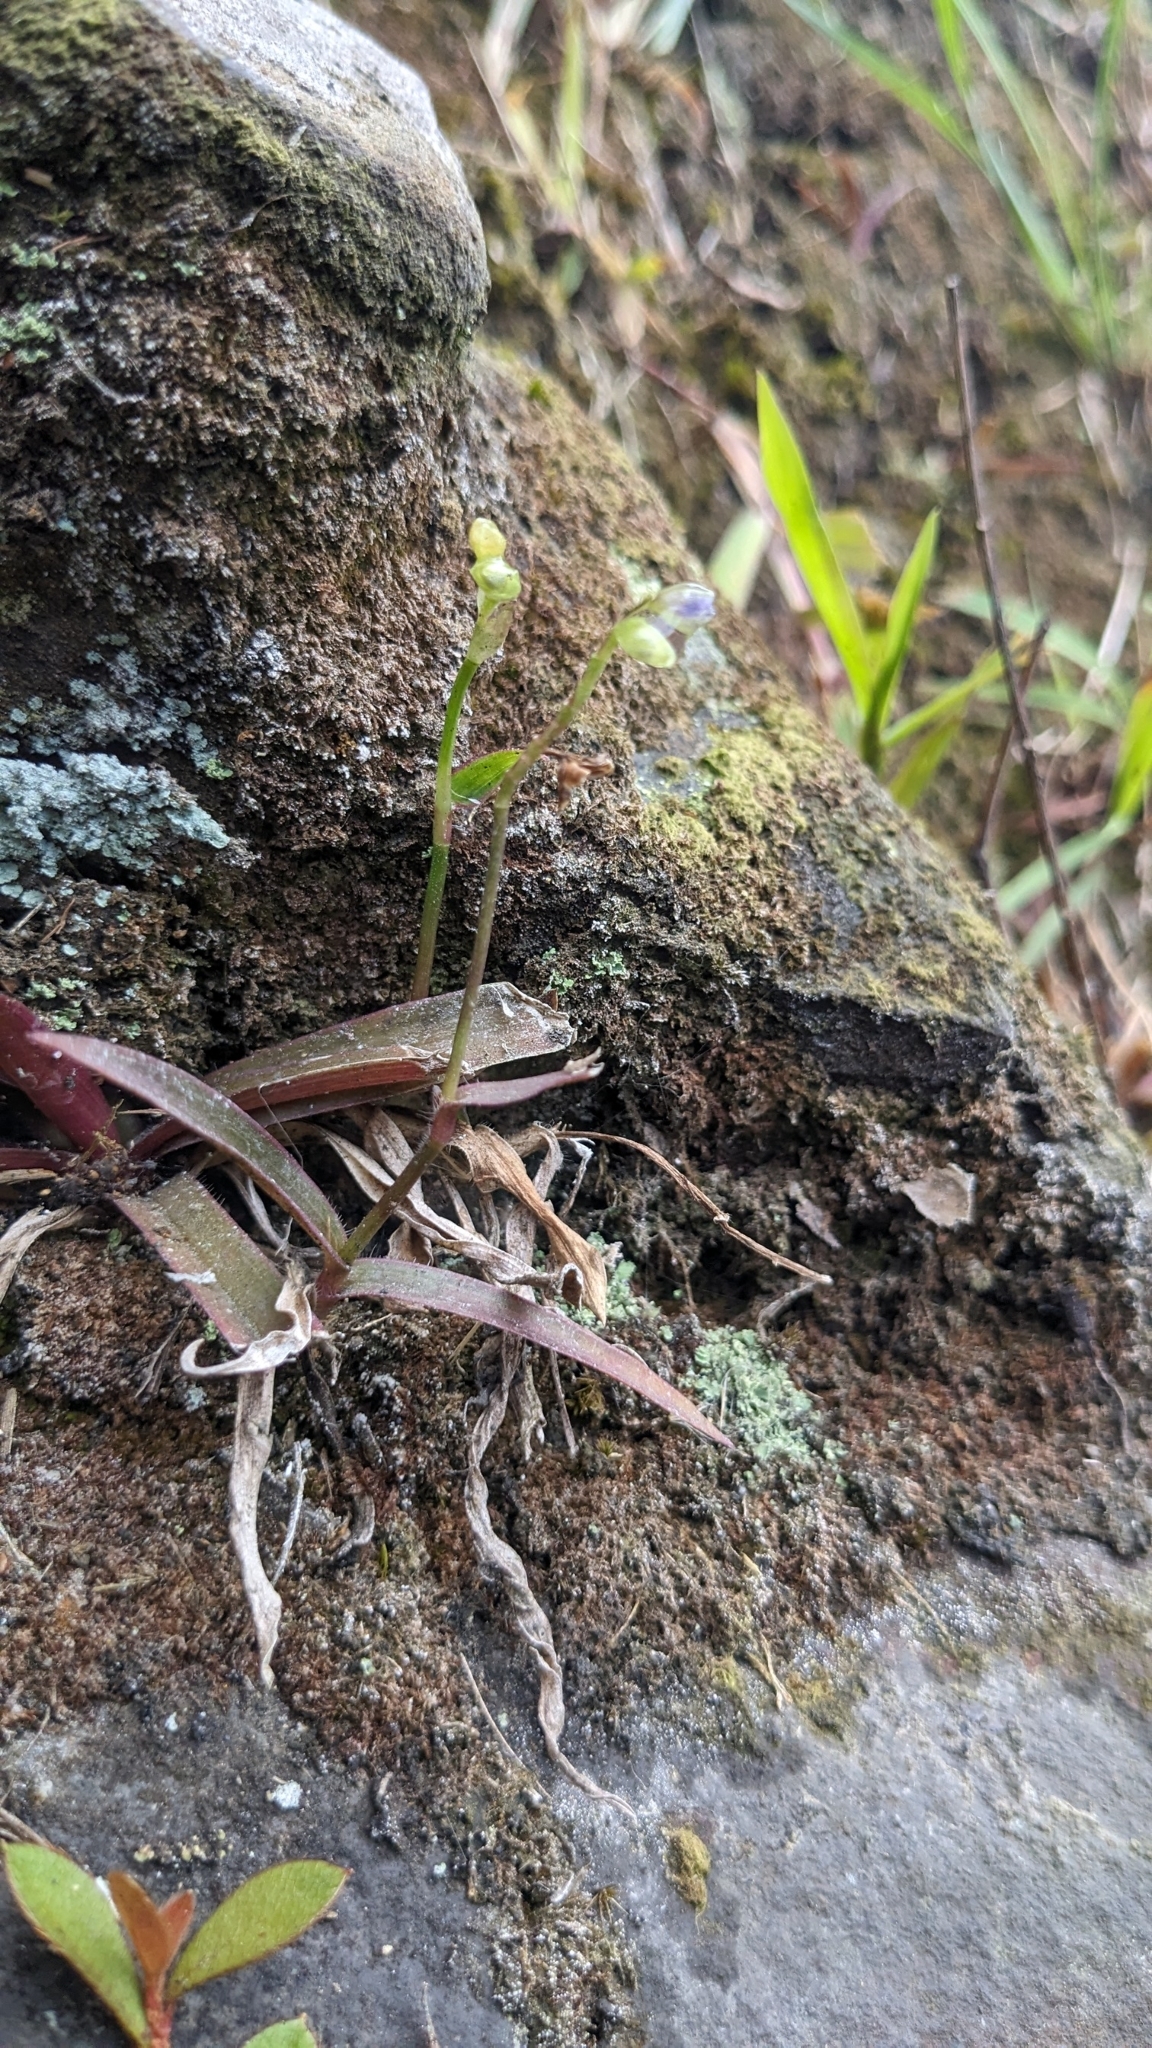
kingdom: Plantae
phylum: Tracheophyta
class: Liliopsida
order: Commelinales
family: Commelinaceae
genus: Murdannia
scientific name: Murdannia loriformis
